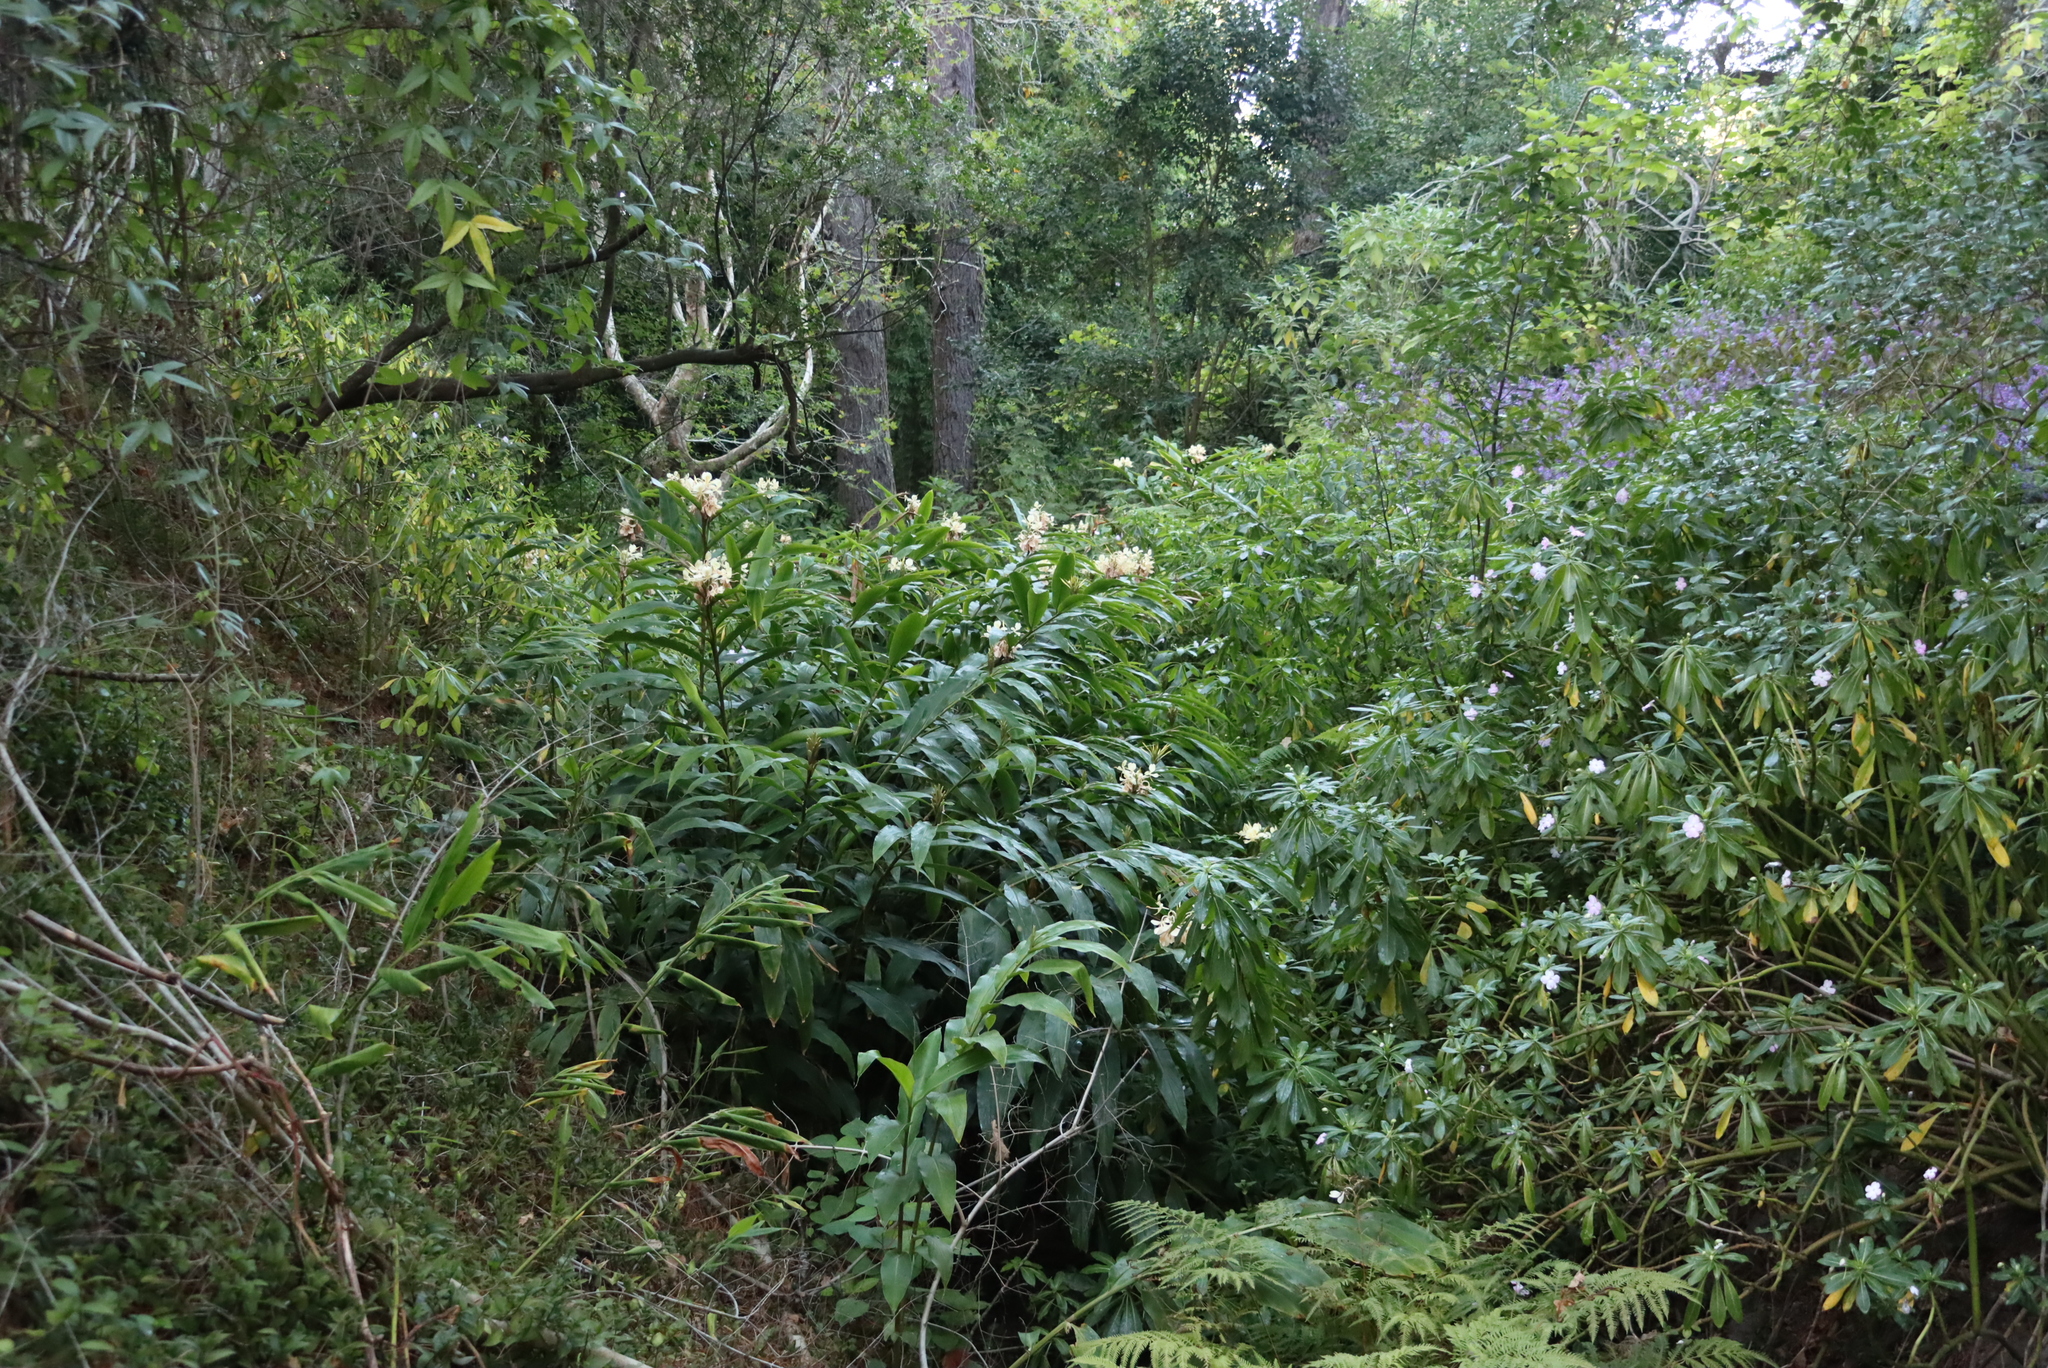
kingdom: Plantae
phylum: Tracheophyta
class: Liliopsida
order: Zingiberales
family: Zingiberaceae
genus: Hedychium
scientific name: Hedychium coronarium
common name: White garland-lily
